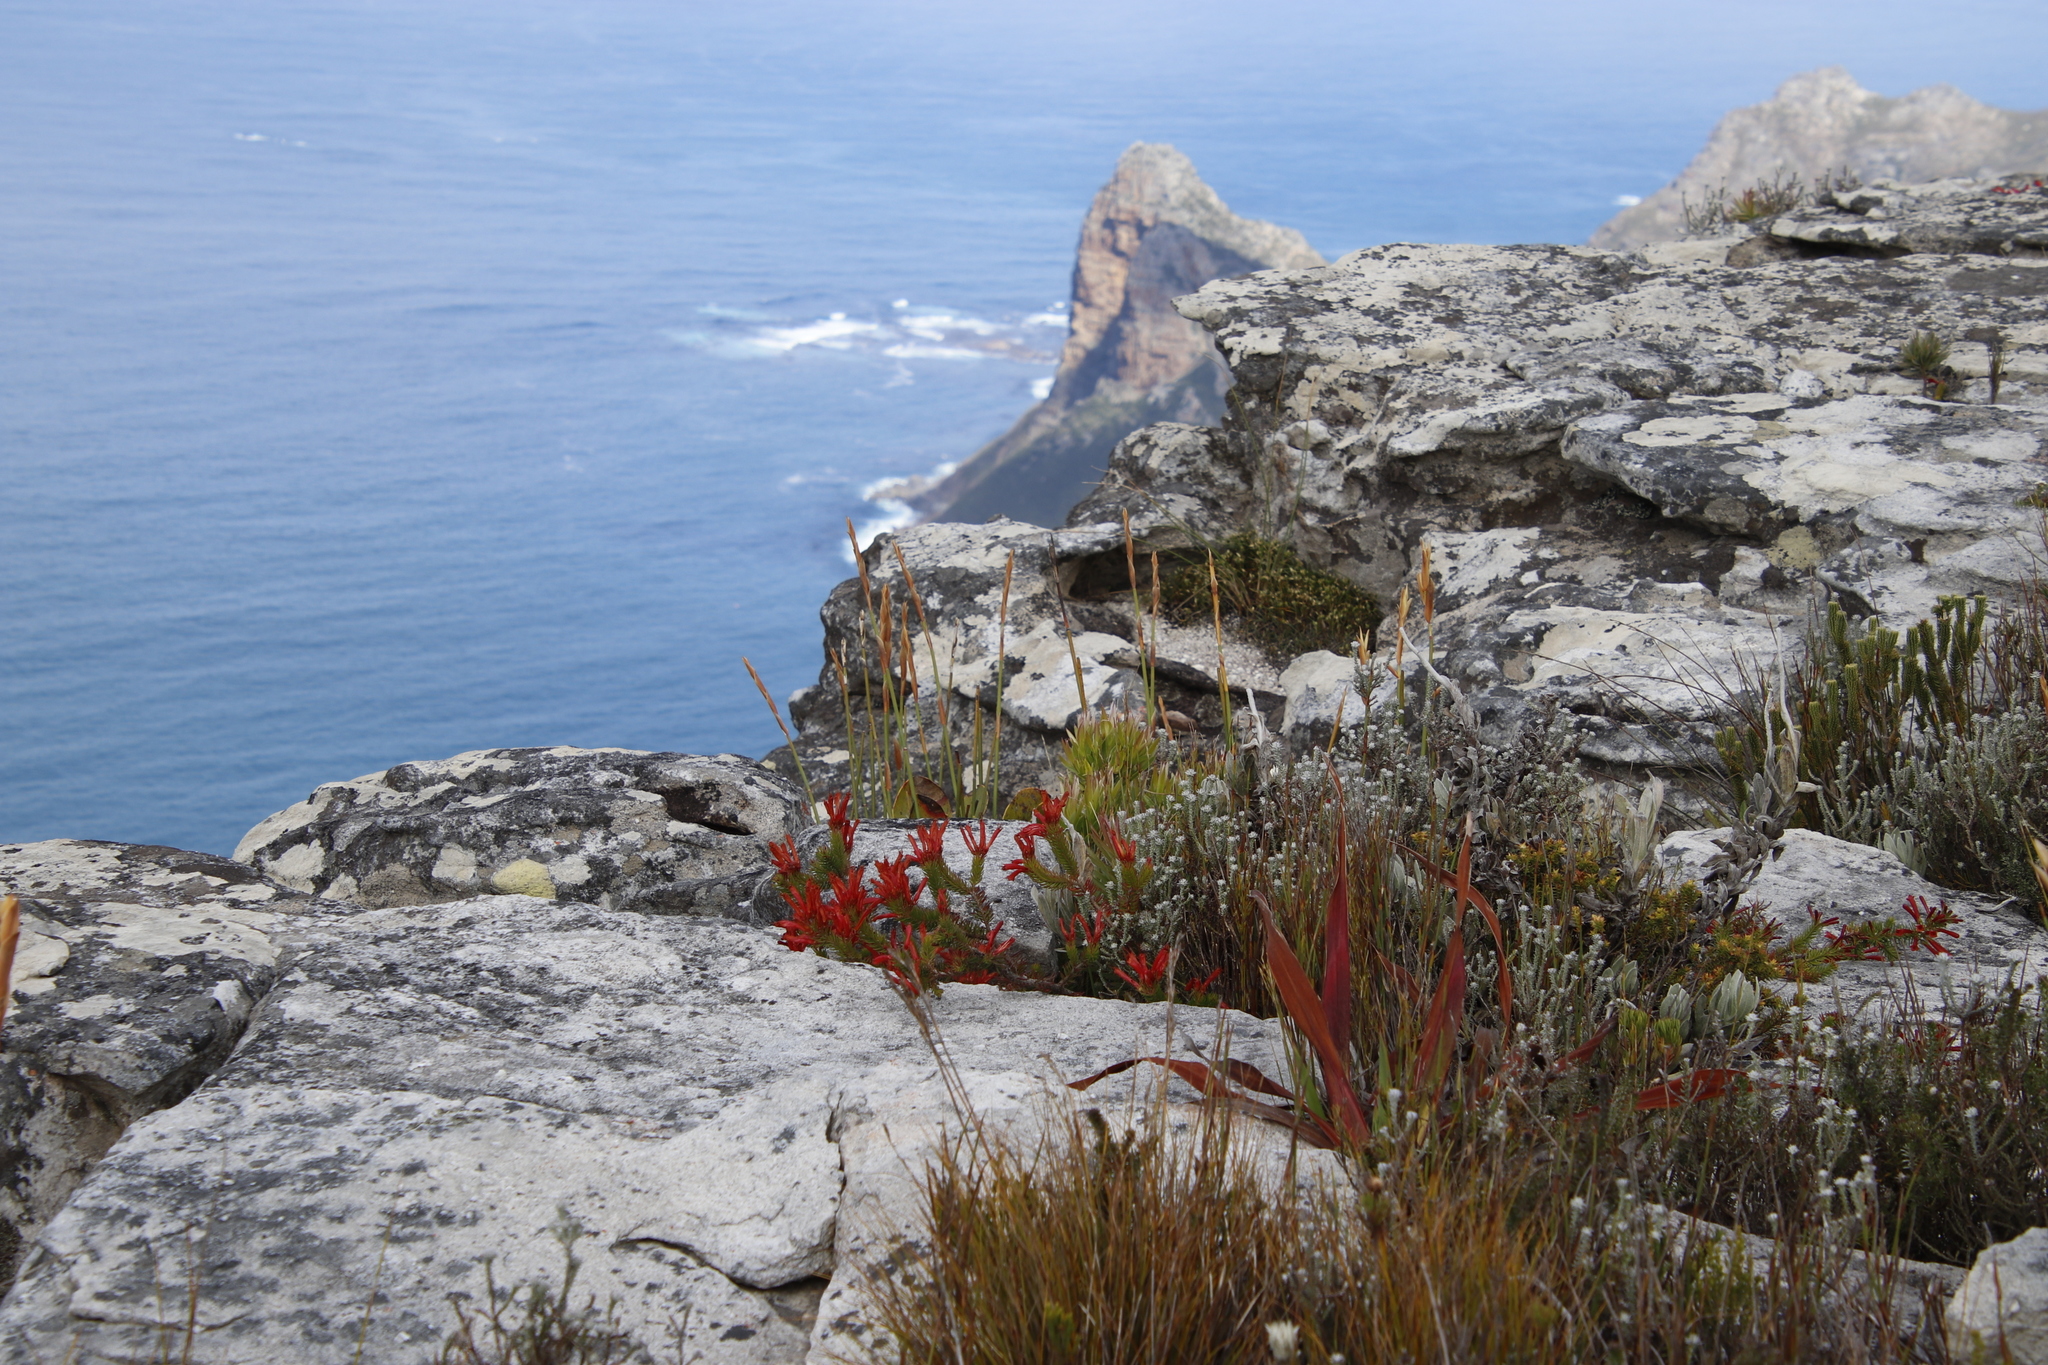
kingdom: Plantae
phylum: Tracheophyta
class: Magnoliopsida
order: Ericales
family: Ericaceae
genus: Erica
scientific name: Erica nevillei
